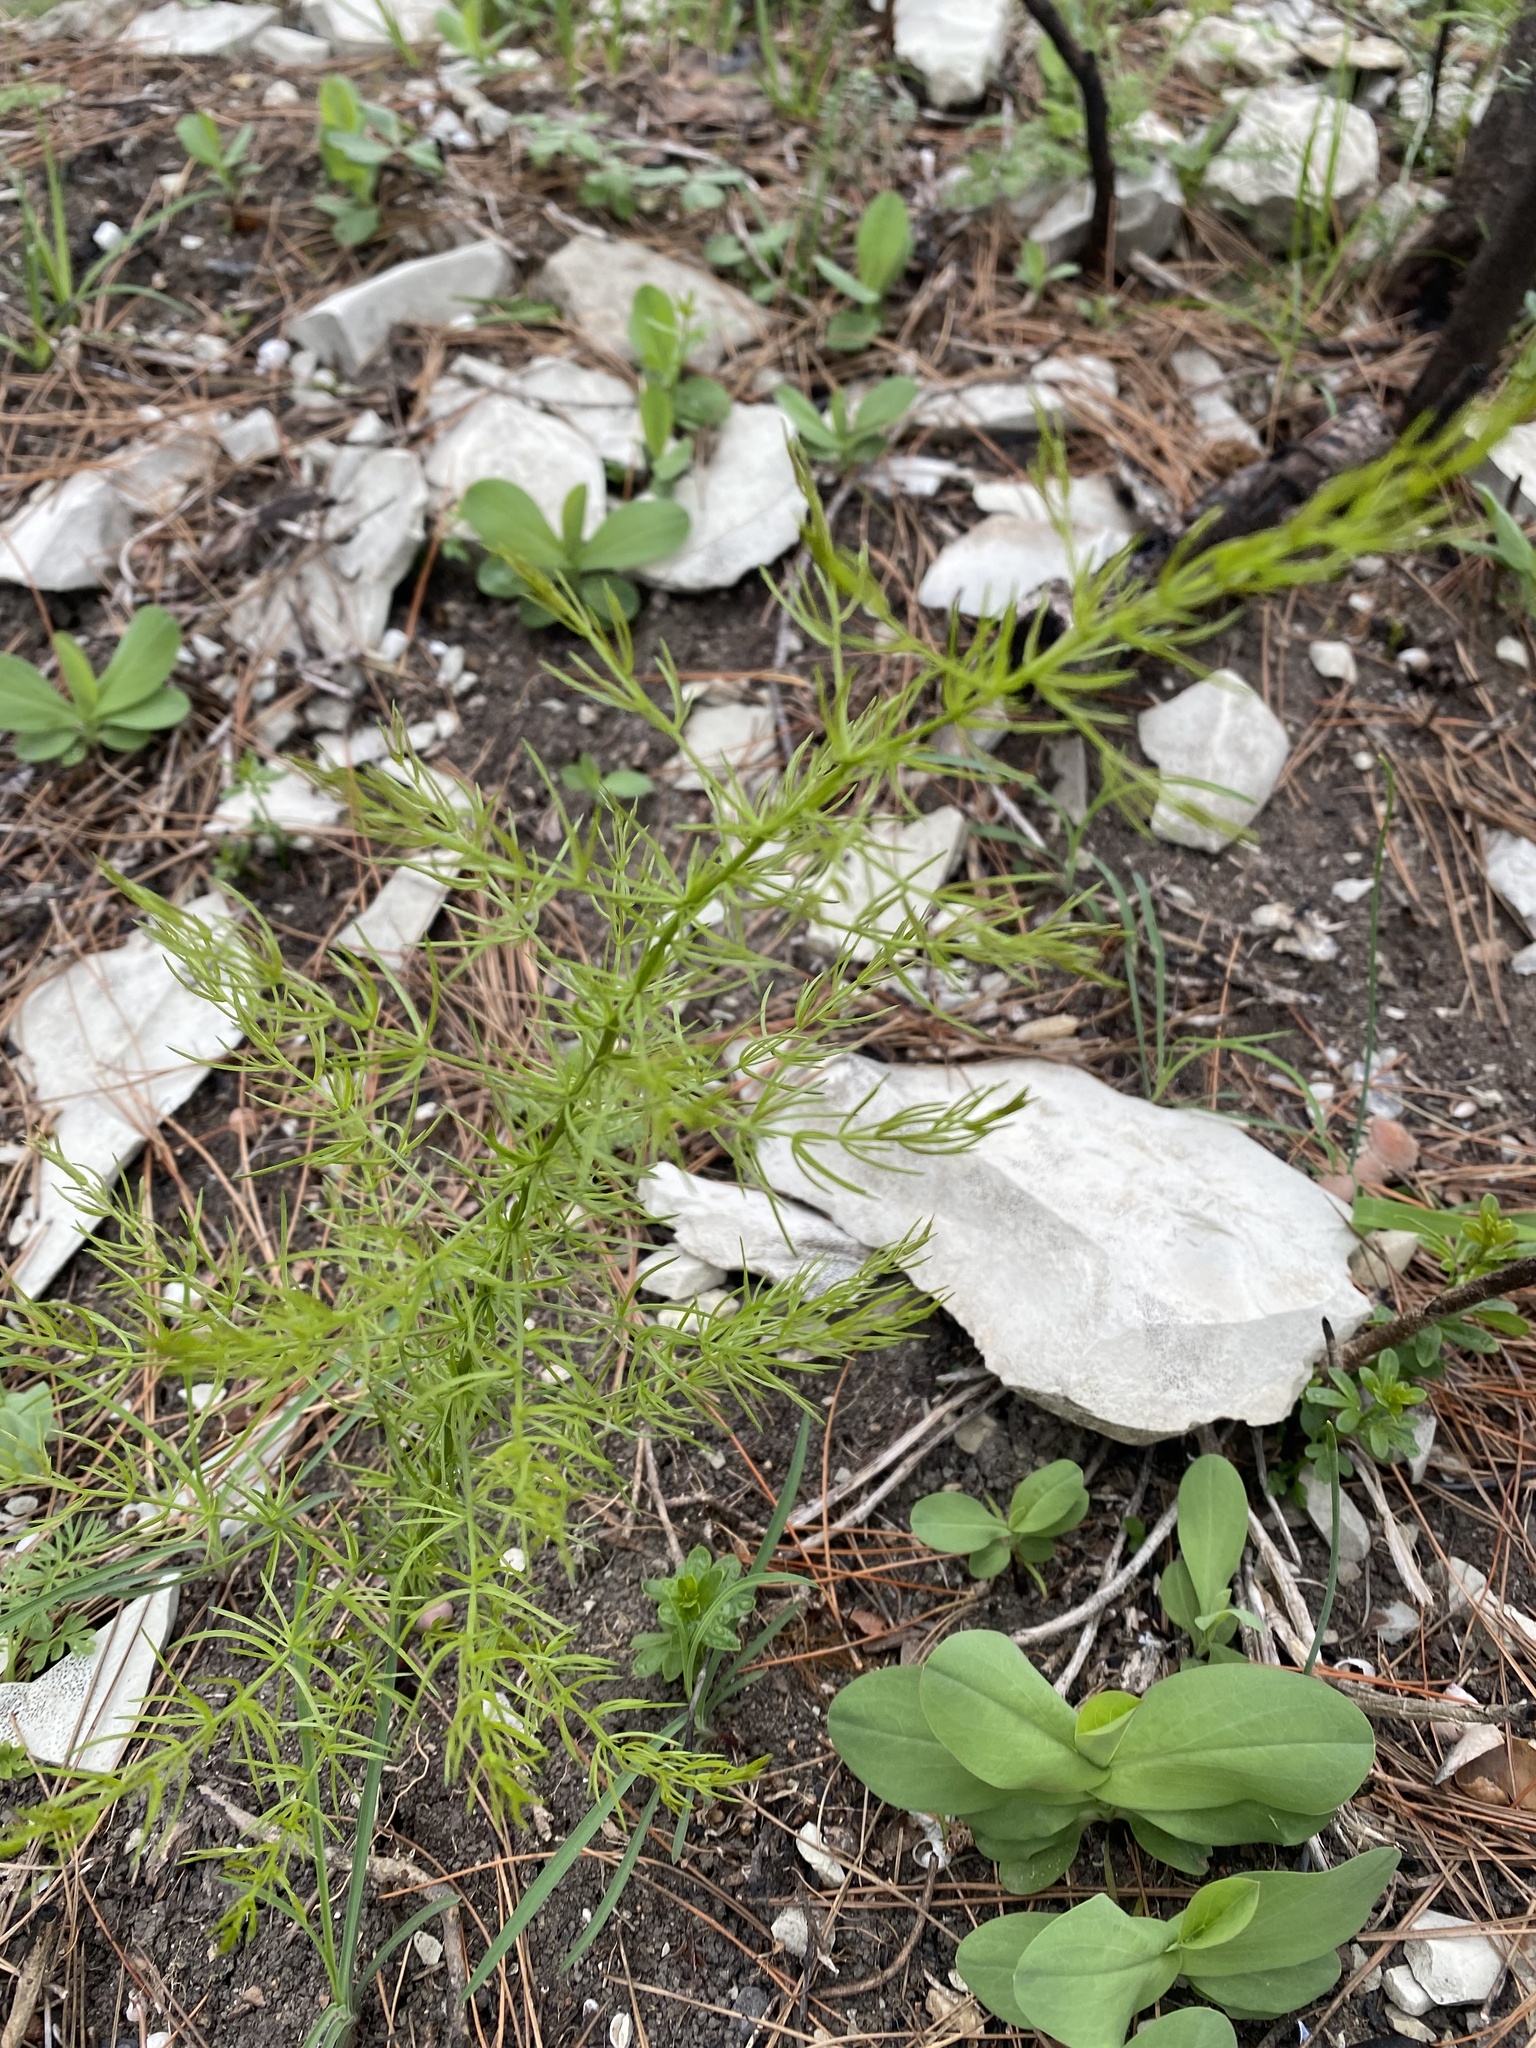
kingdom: Plantae
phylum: Tracheophyta
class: Liliopsida
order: Asparagales
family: Asparagaceae
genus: Asparagus
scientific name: Asparagus verticillatus
